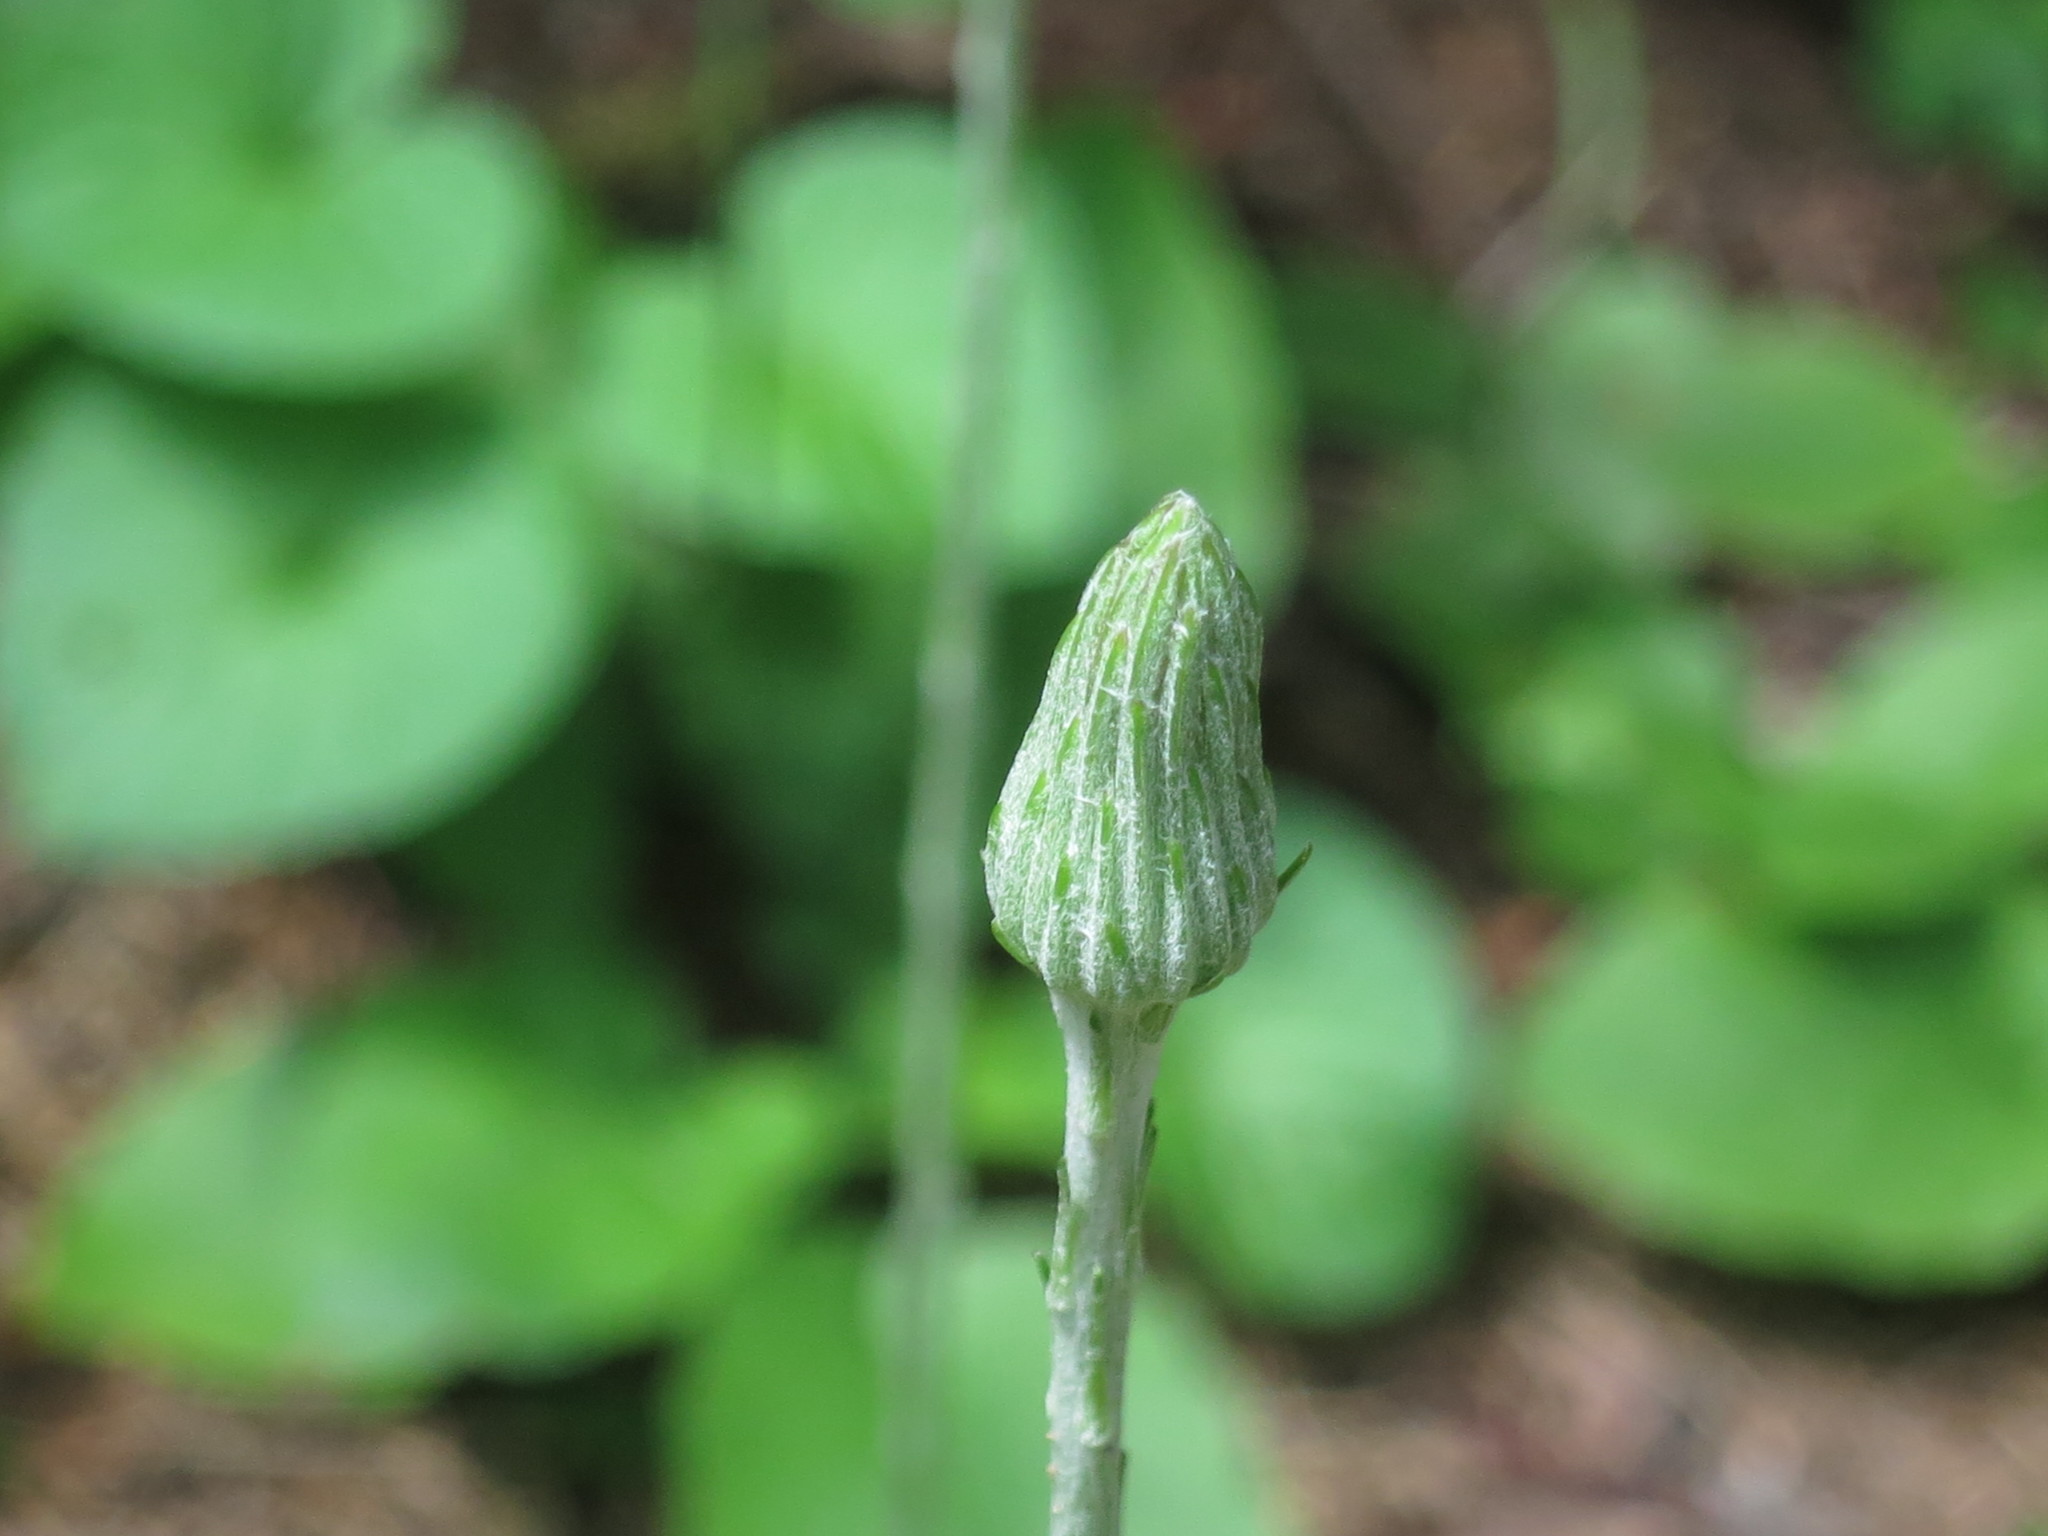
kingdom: Plantae
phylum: Tracheophyta
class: Magnoliopsida
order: Asterales
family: Asteraceae
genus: Leibnitzia
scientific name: Leibnitzia anandria
